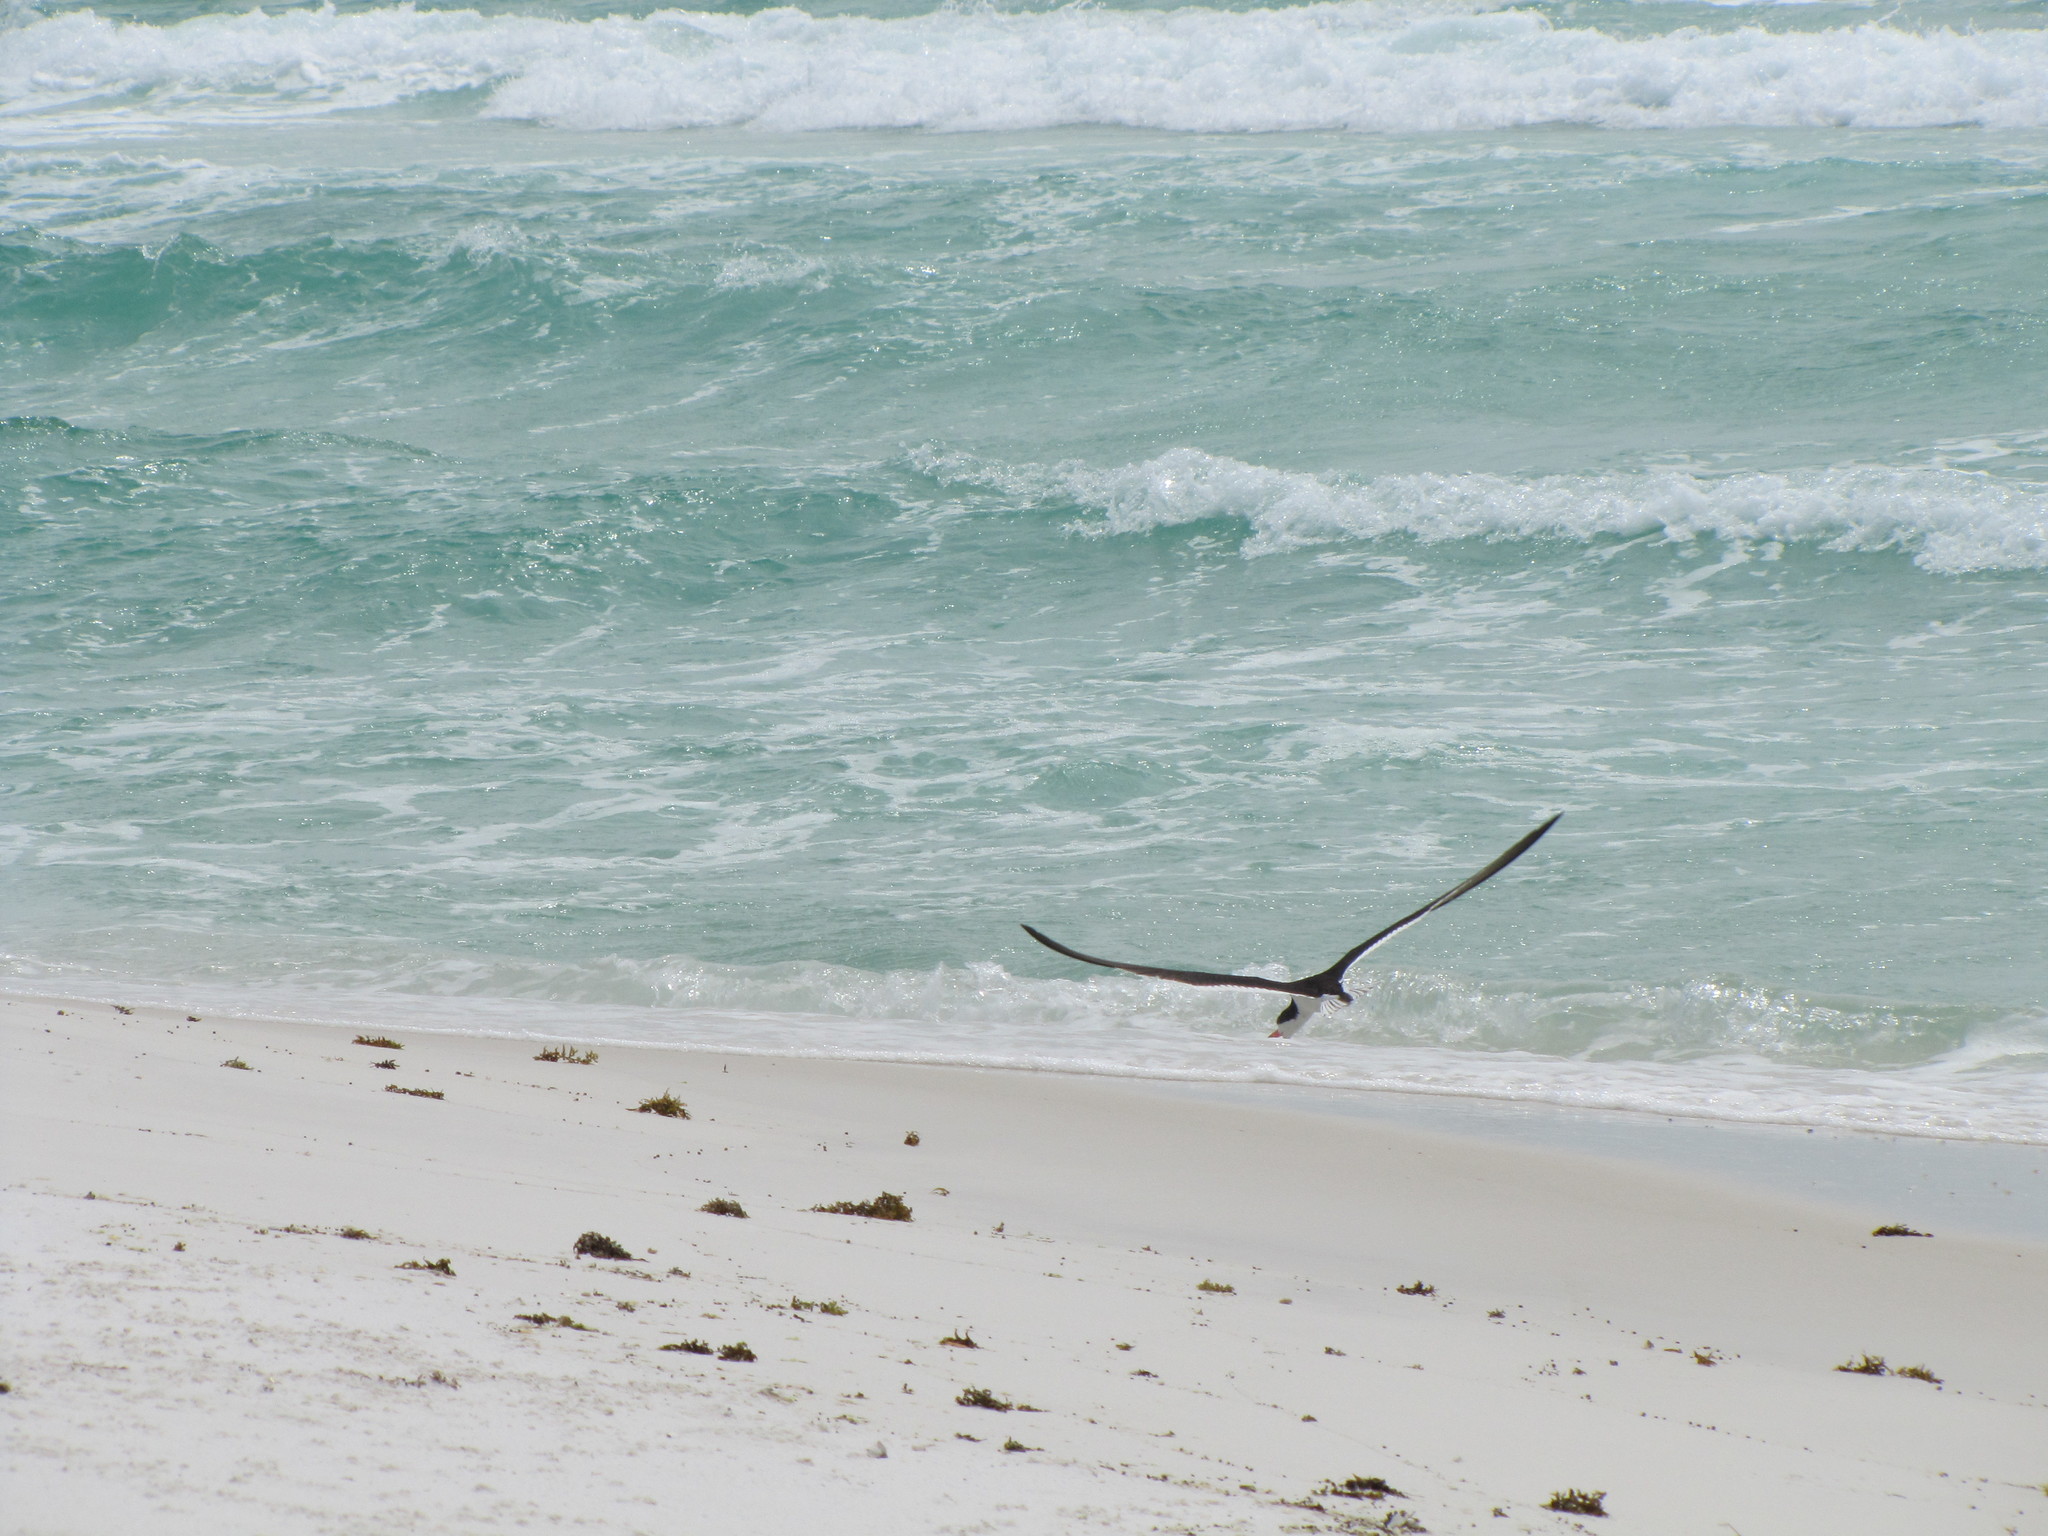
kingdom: Animalia
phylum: Chordata
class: Aves
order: Charadriiformes
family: Laridae
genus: Rynchops
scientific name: Rynchops niger
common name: Black skimmer
